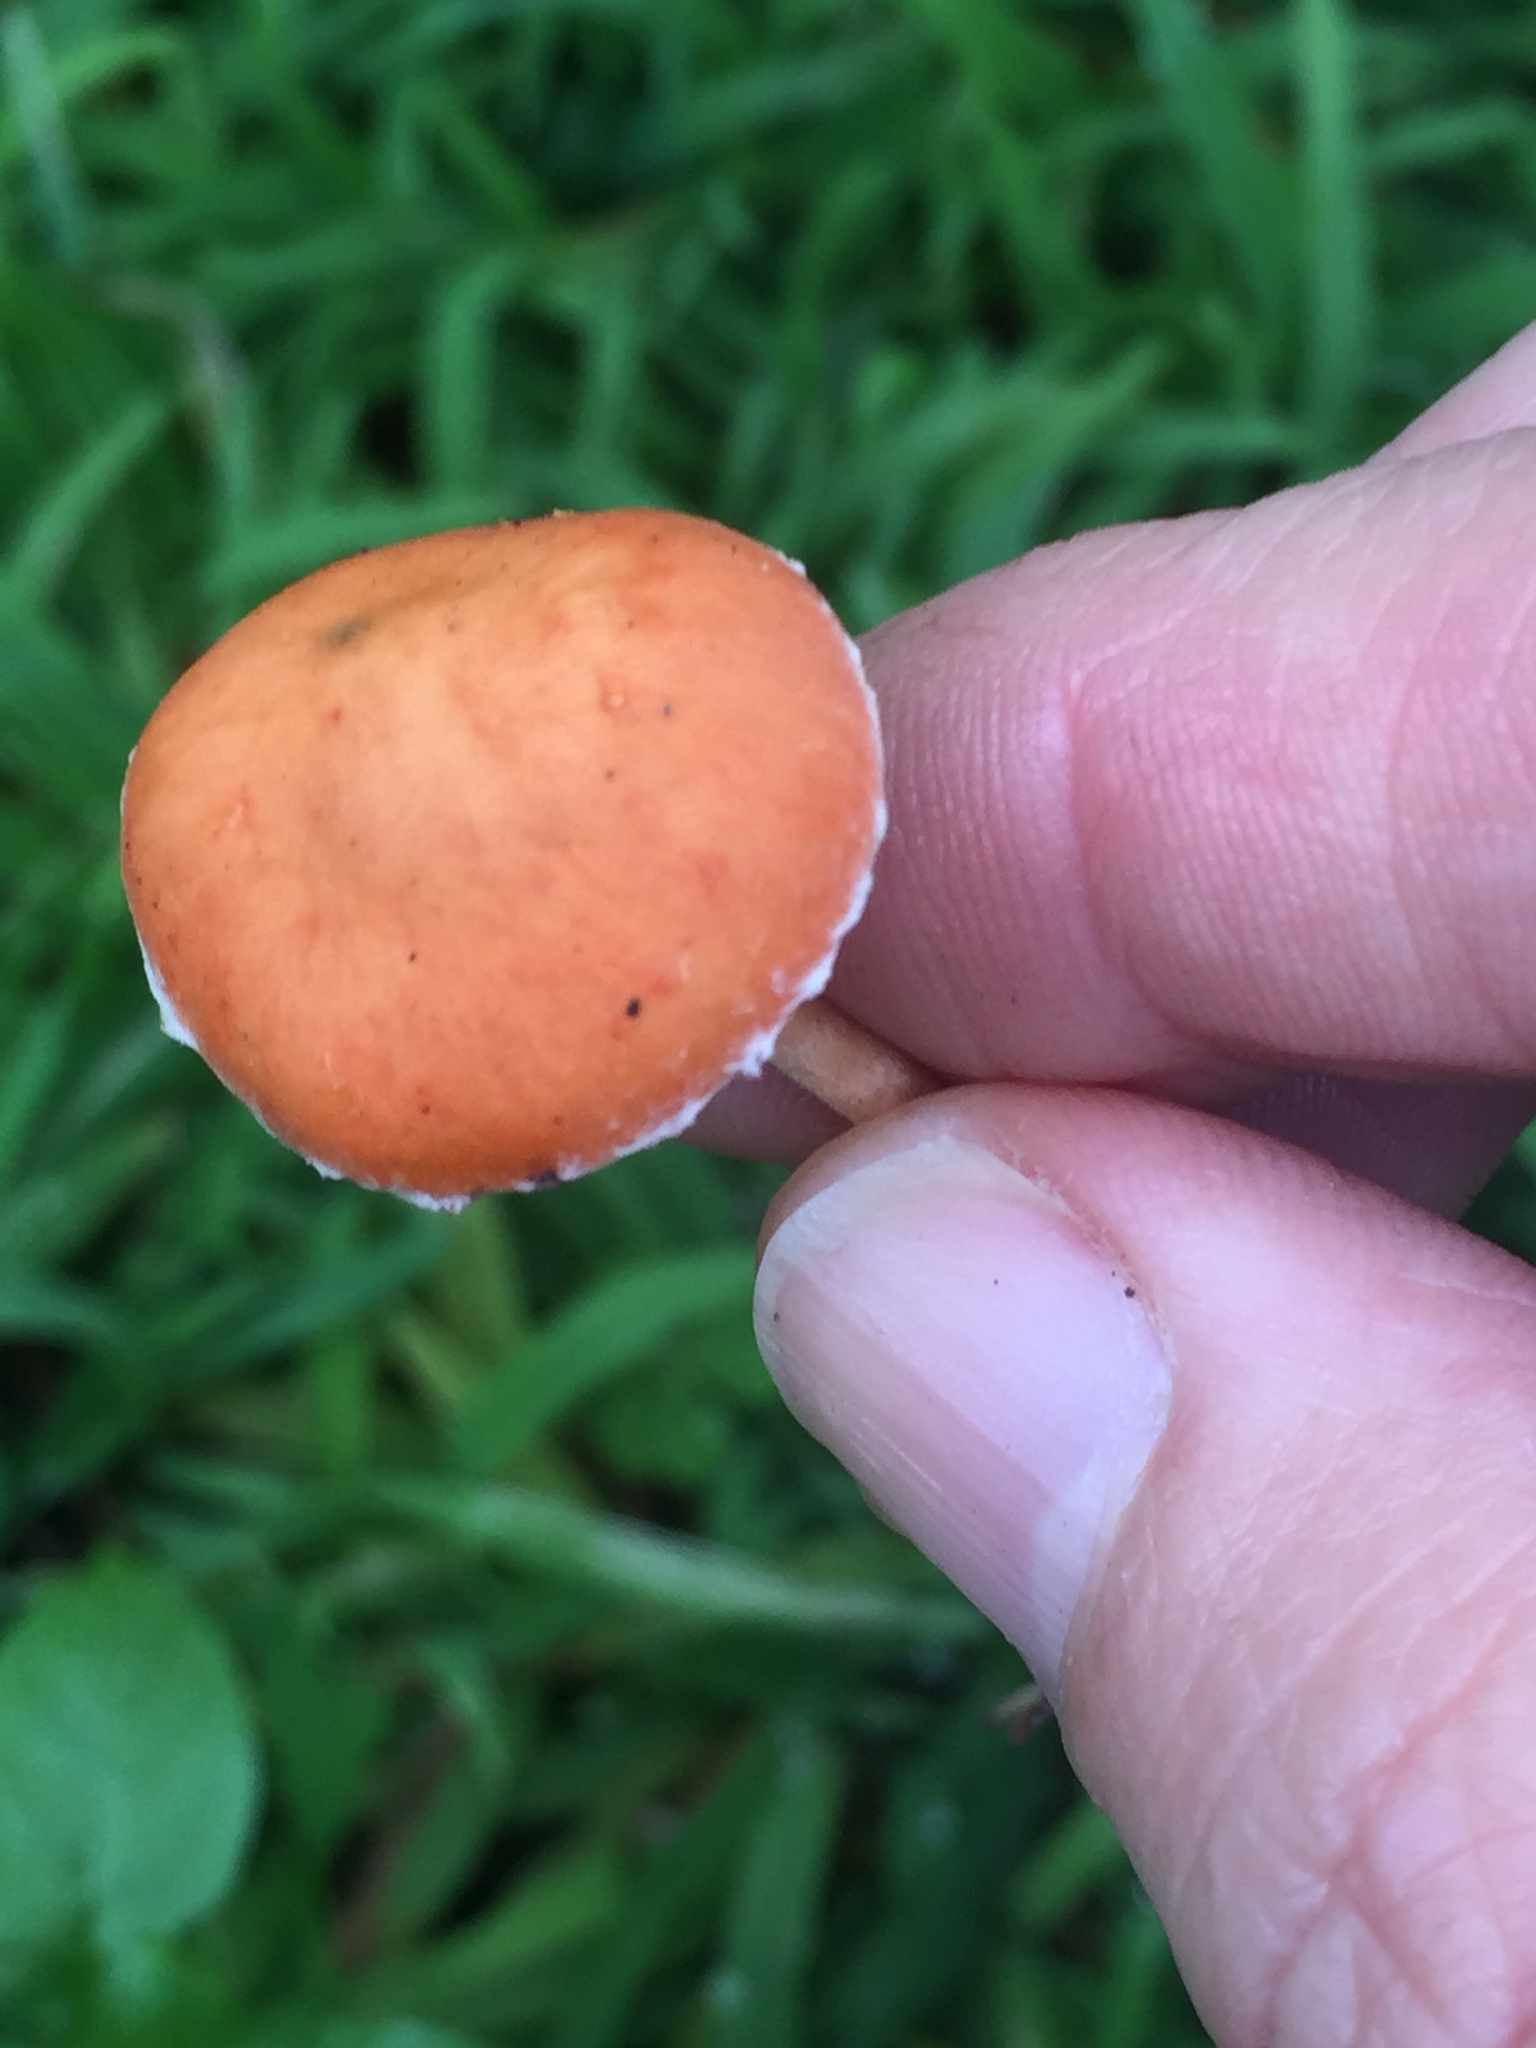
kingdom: Fungi
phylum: Basidiomycota
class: Agaricomycetes
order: Agaricales
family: Strophariaceae
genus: Leratiomyces
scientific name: Leratiomyces ceres
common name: Redlead roundhead
